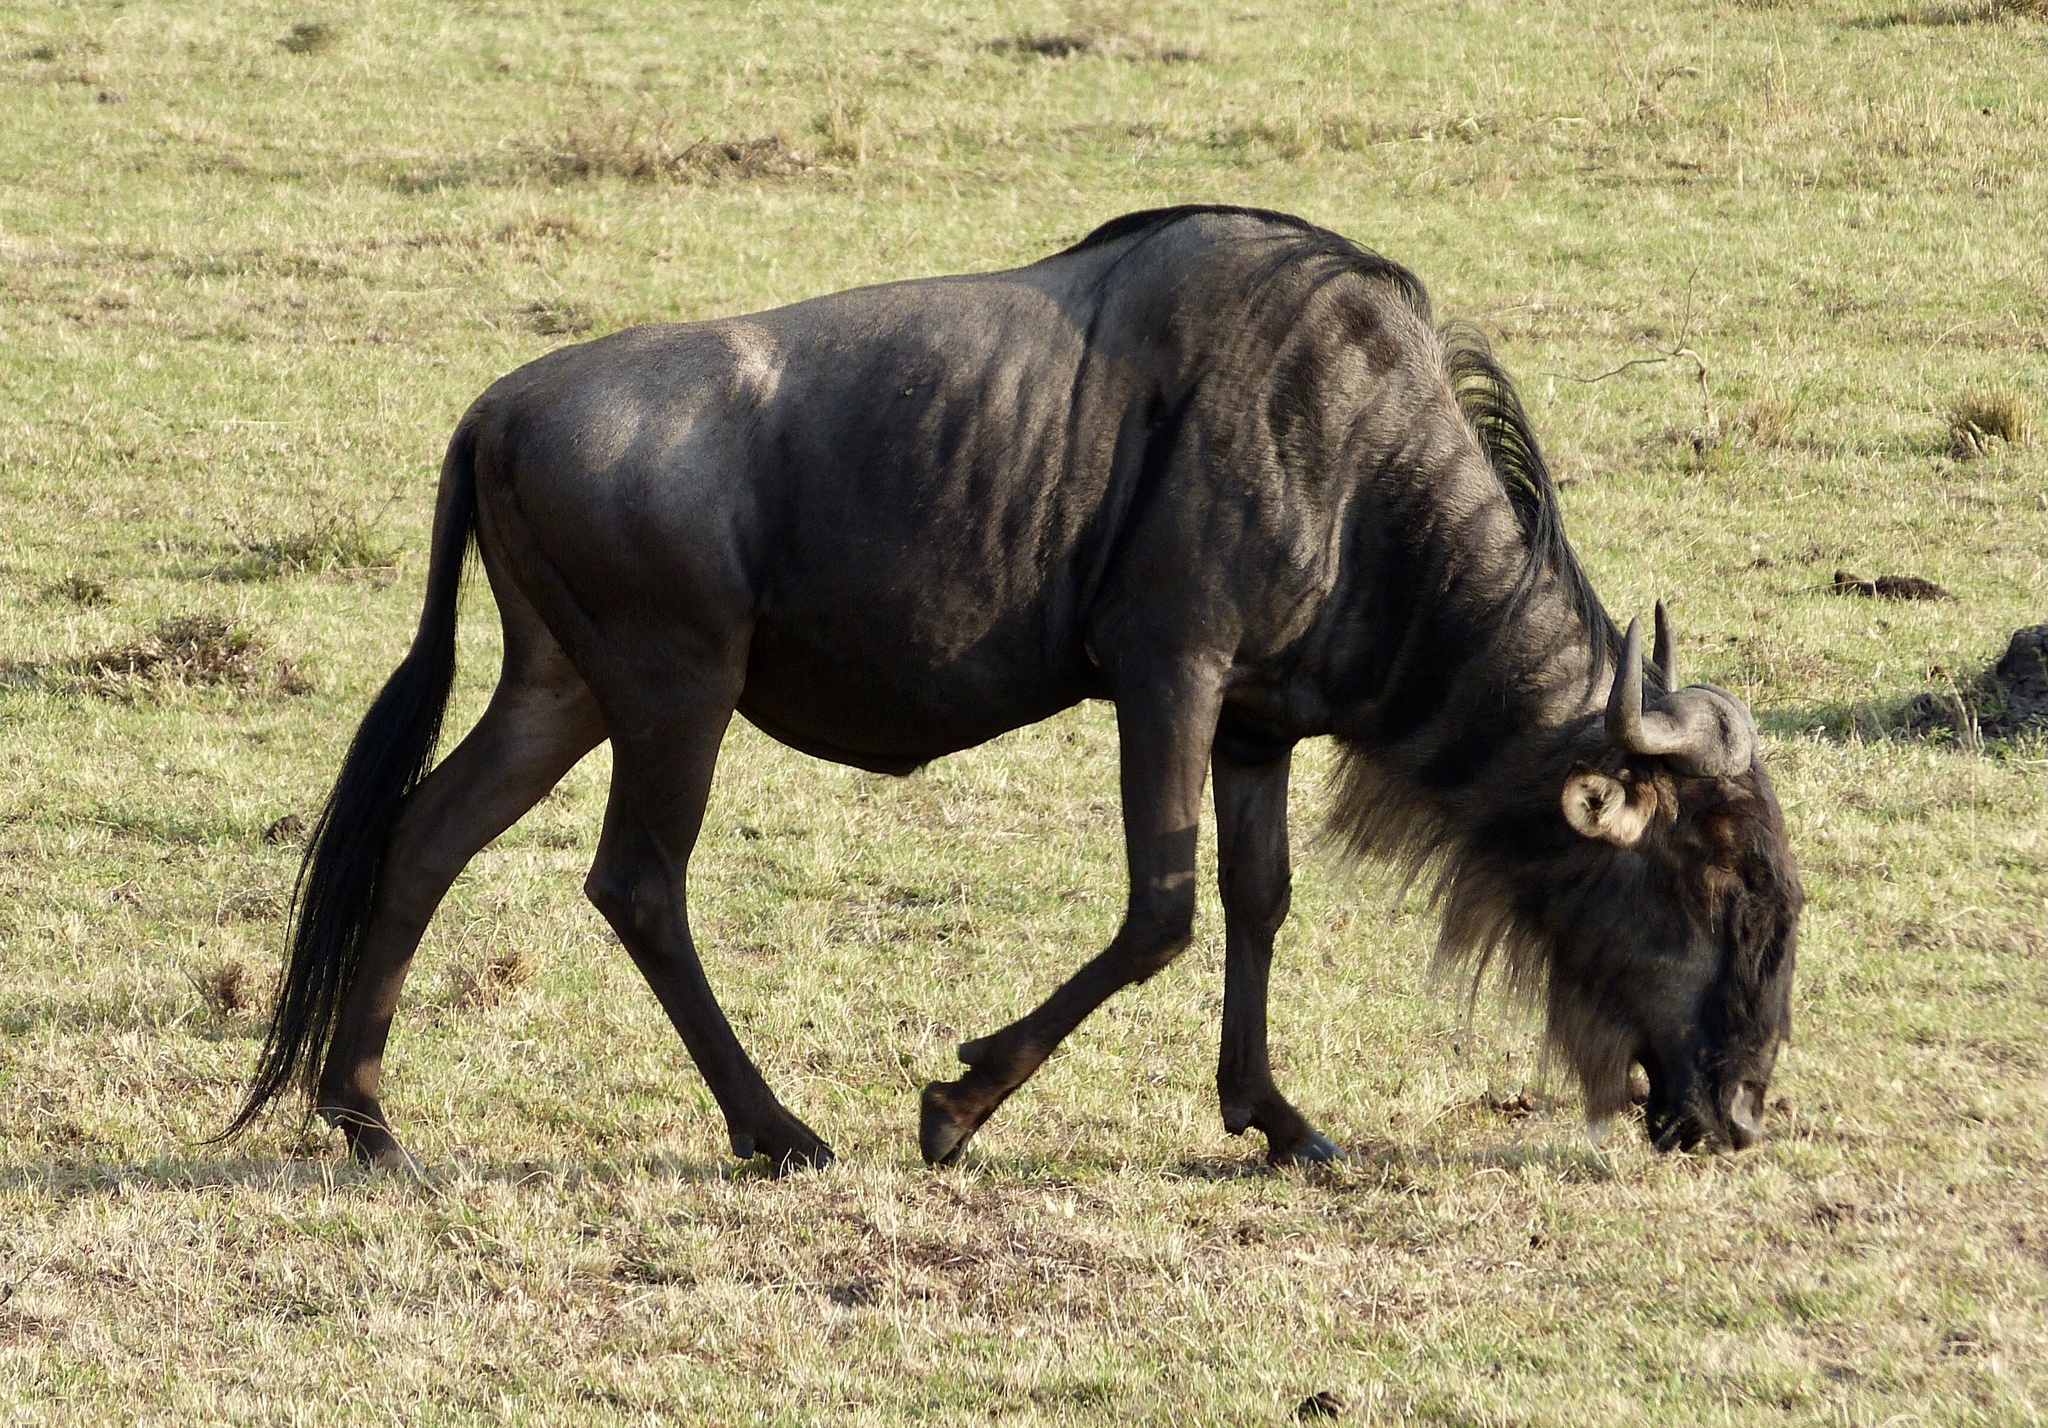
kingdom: Animalia
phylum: Chordata
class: Mammalia
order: Artiodactyla
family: Bovidae
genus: Connochaetes
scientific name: Connochaetes taurinus
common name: Blue wildebeest
